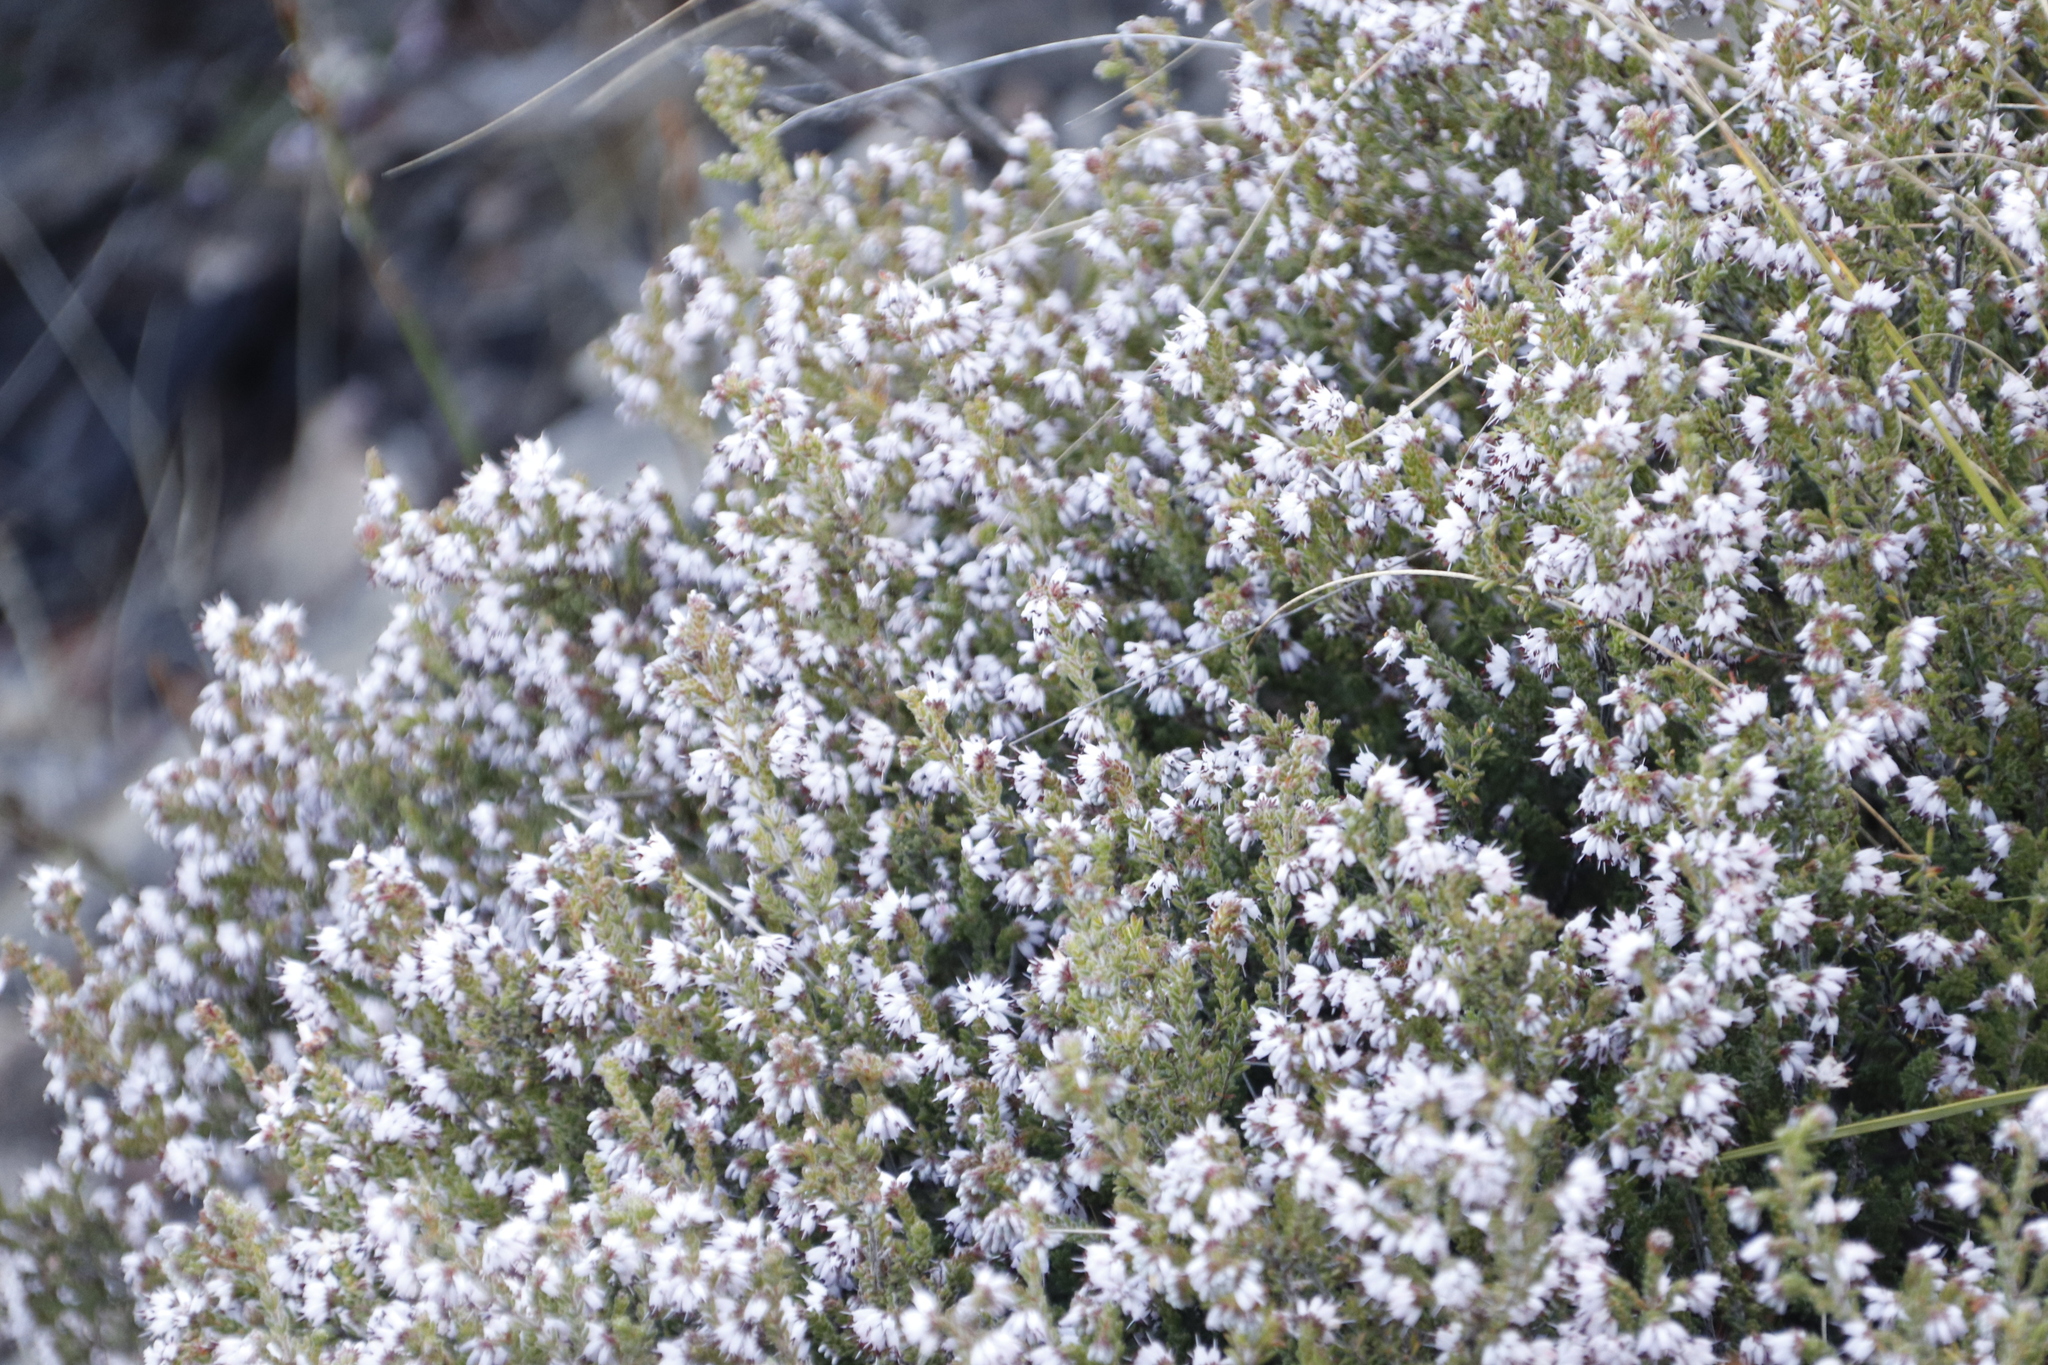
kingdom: Plantae
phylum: Tracheophyta
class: Magnoliopsida
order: Ericales
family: Ericaceae
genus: Erica
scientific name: Erica ericoides
